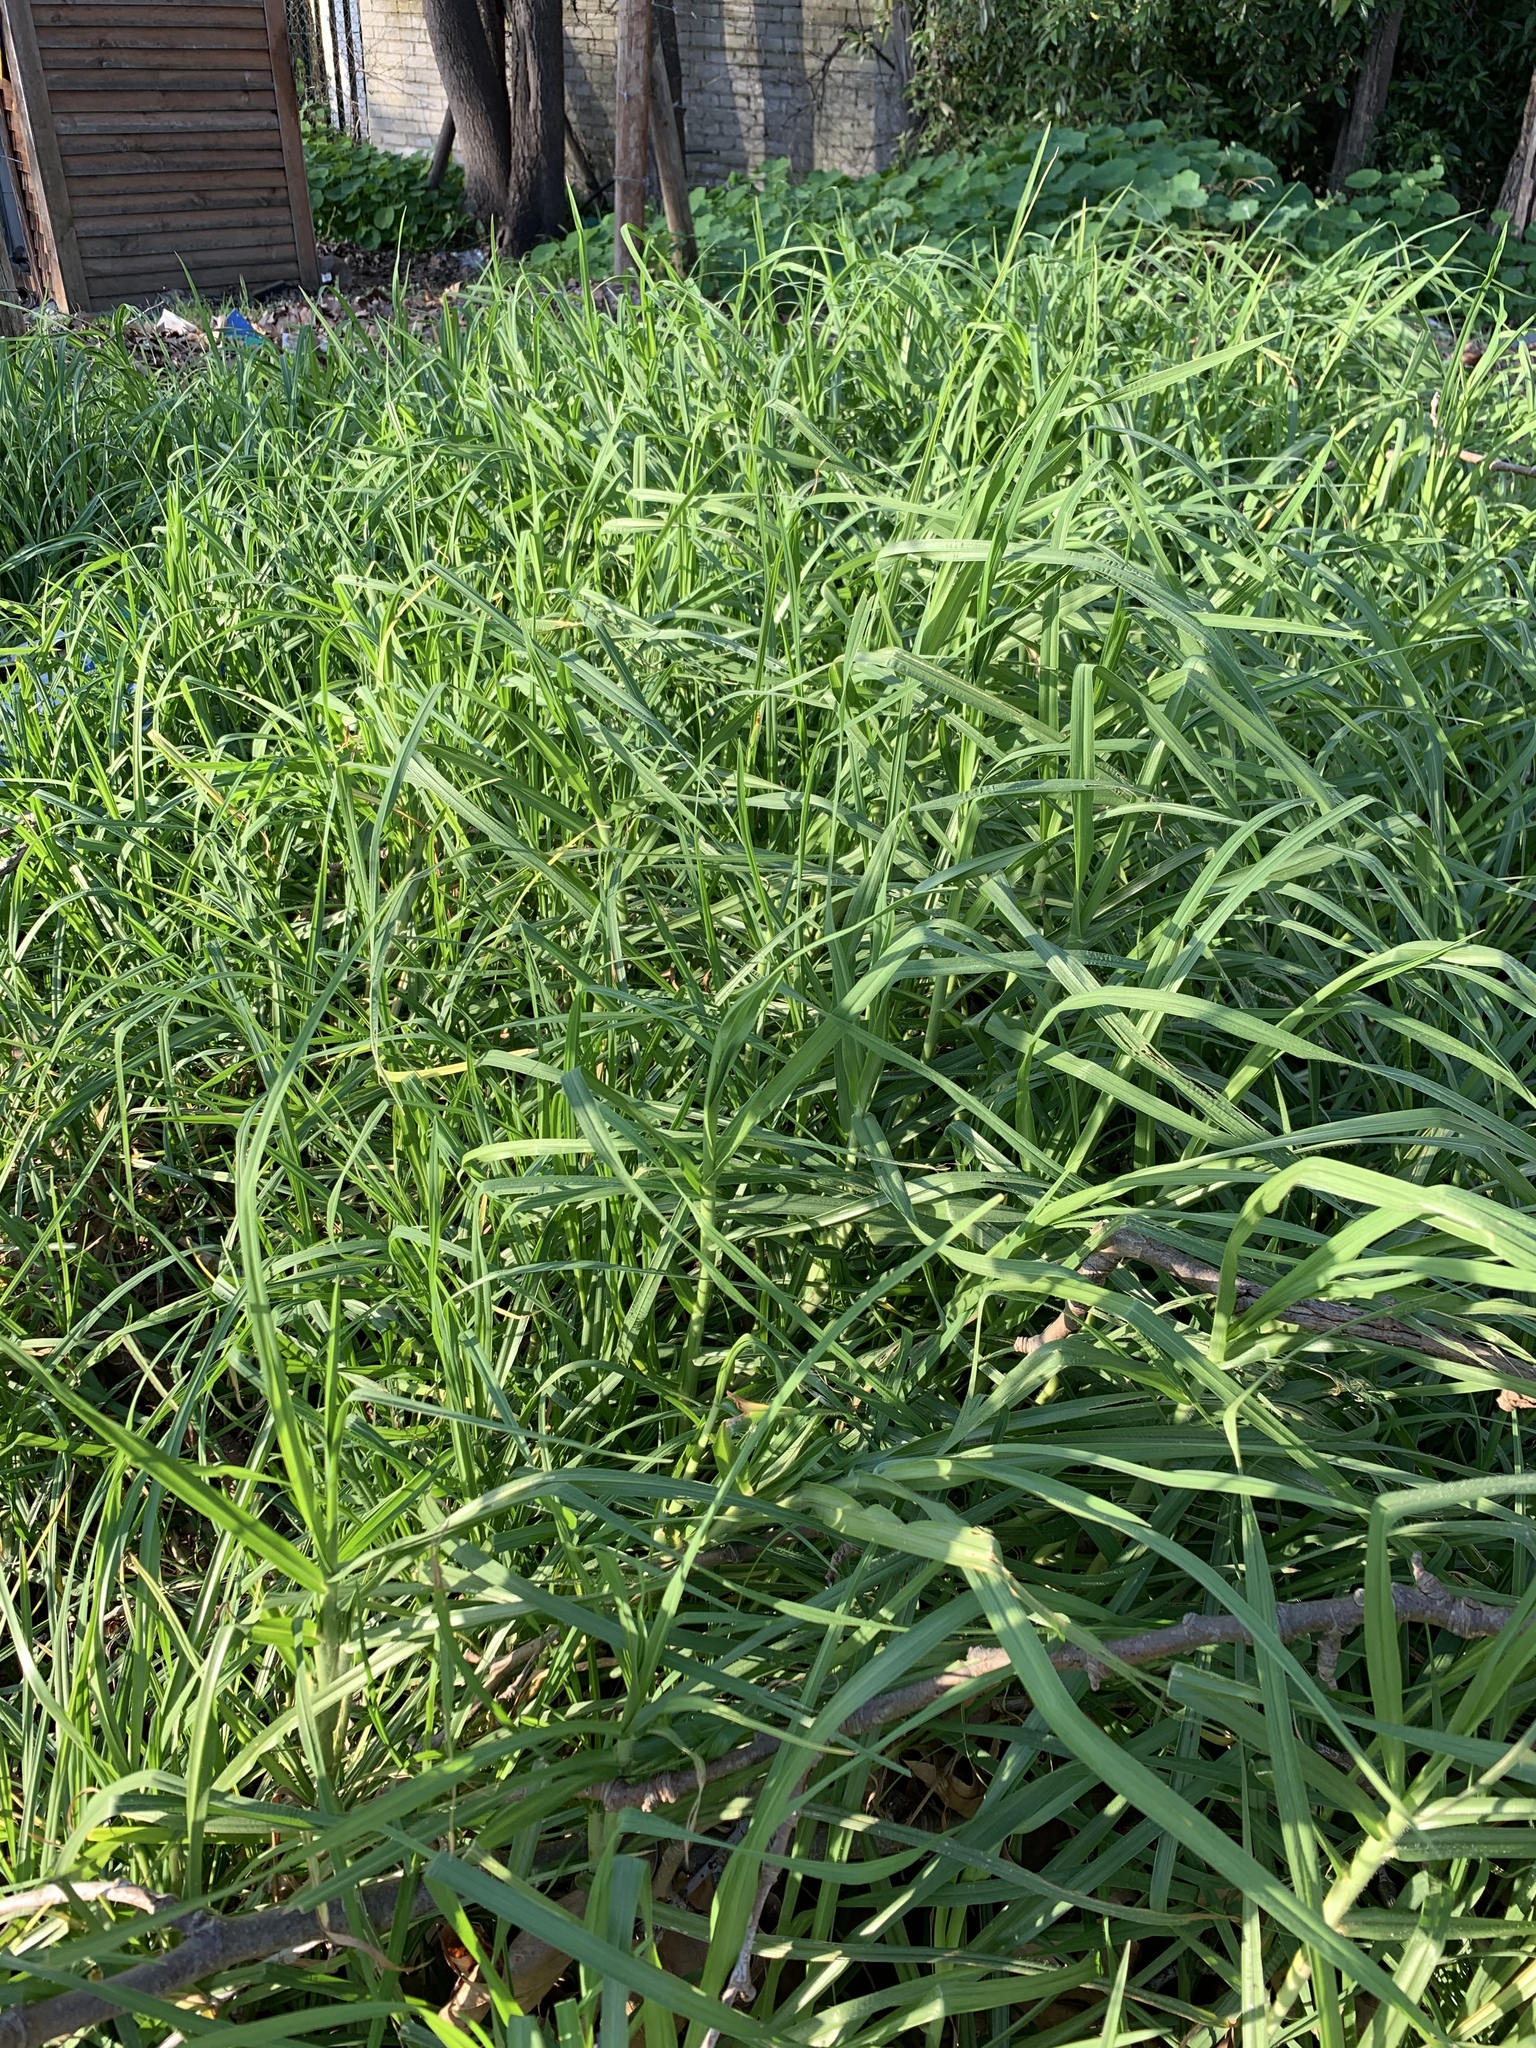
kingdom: Plantae
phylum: Tracheophyta
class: Liliopsida
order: Poales
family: Poaceae
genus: Cenchrus
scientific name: Cenchrus clandestinus
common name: Kikuyugrass
